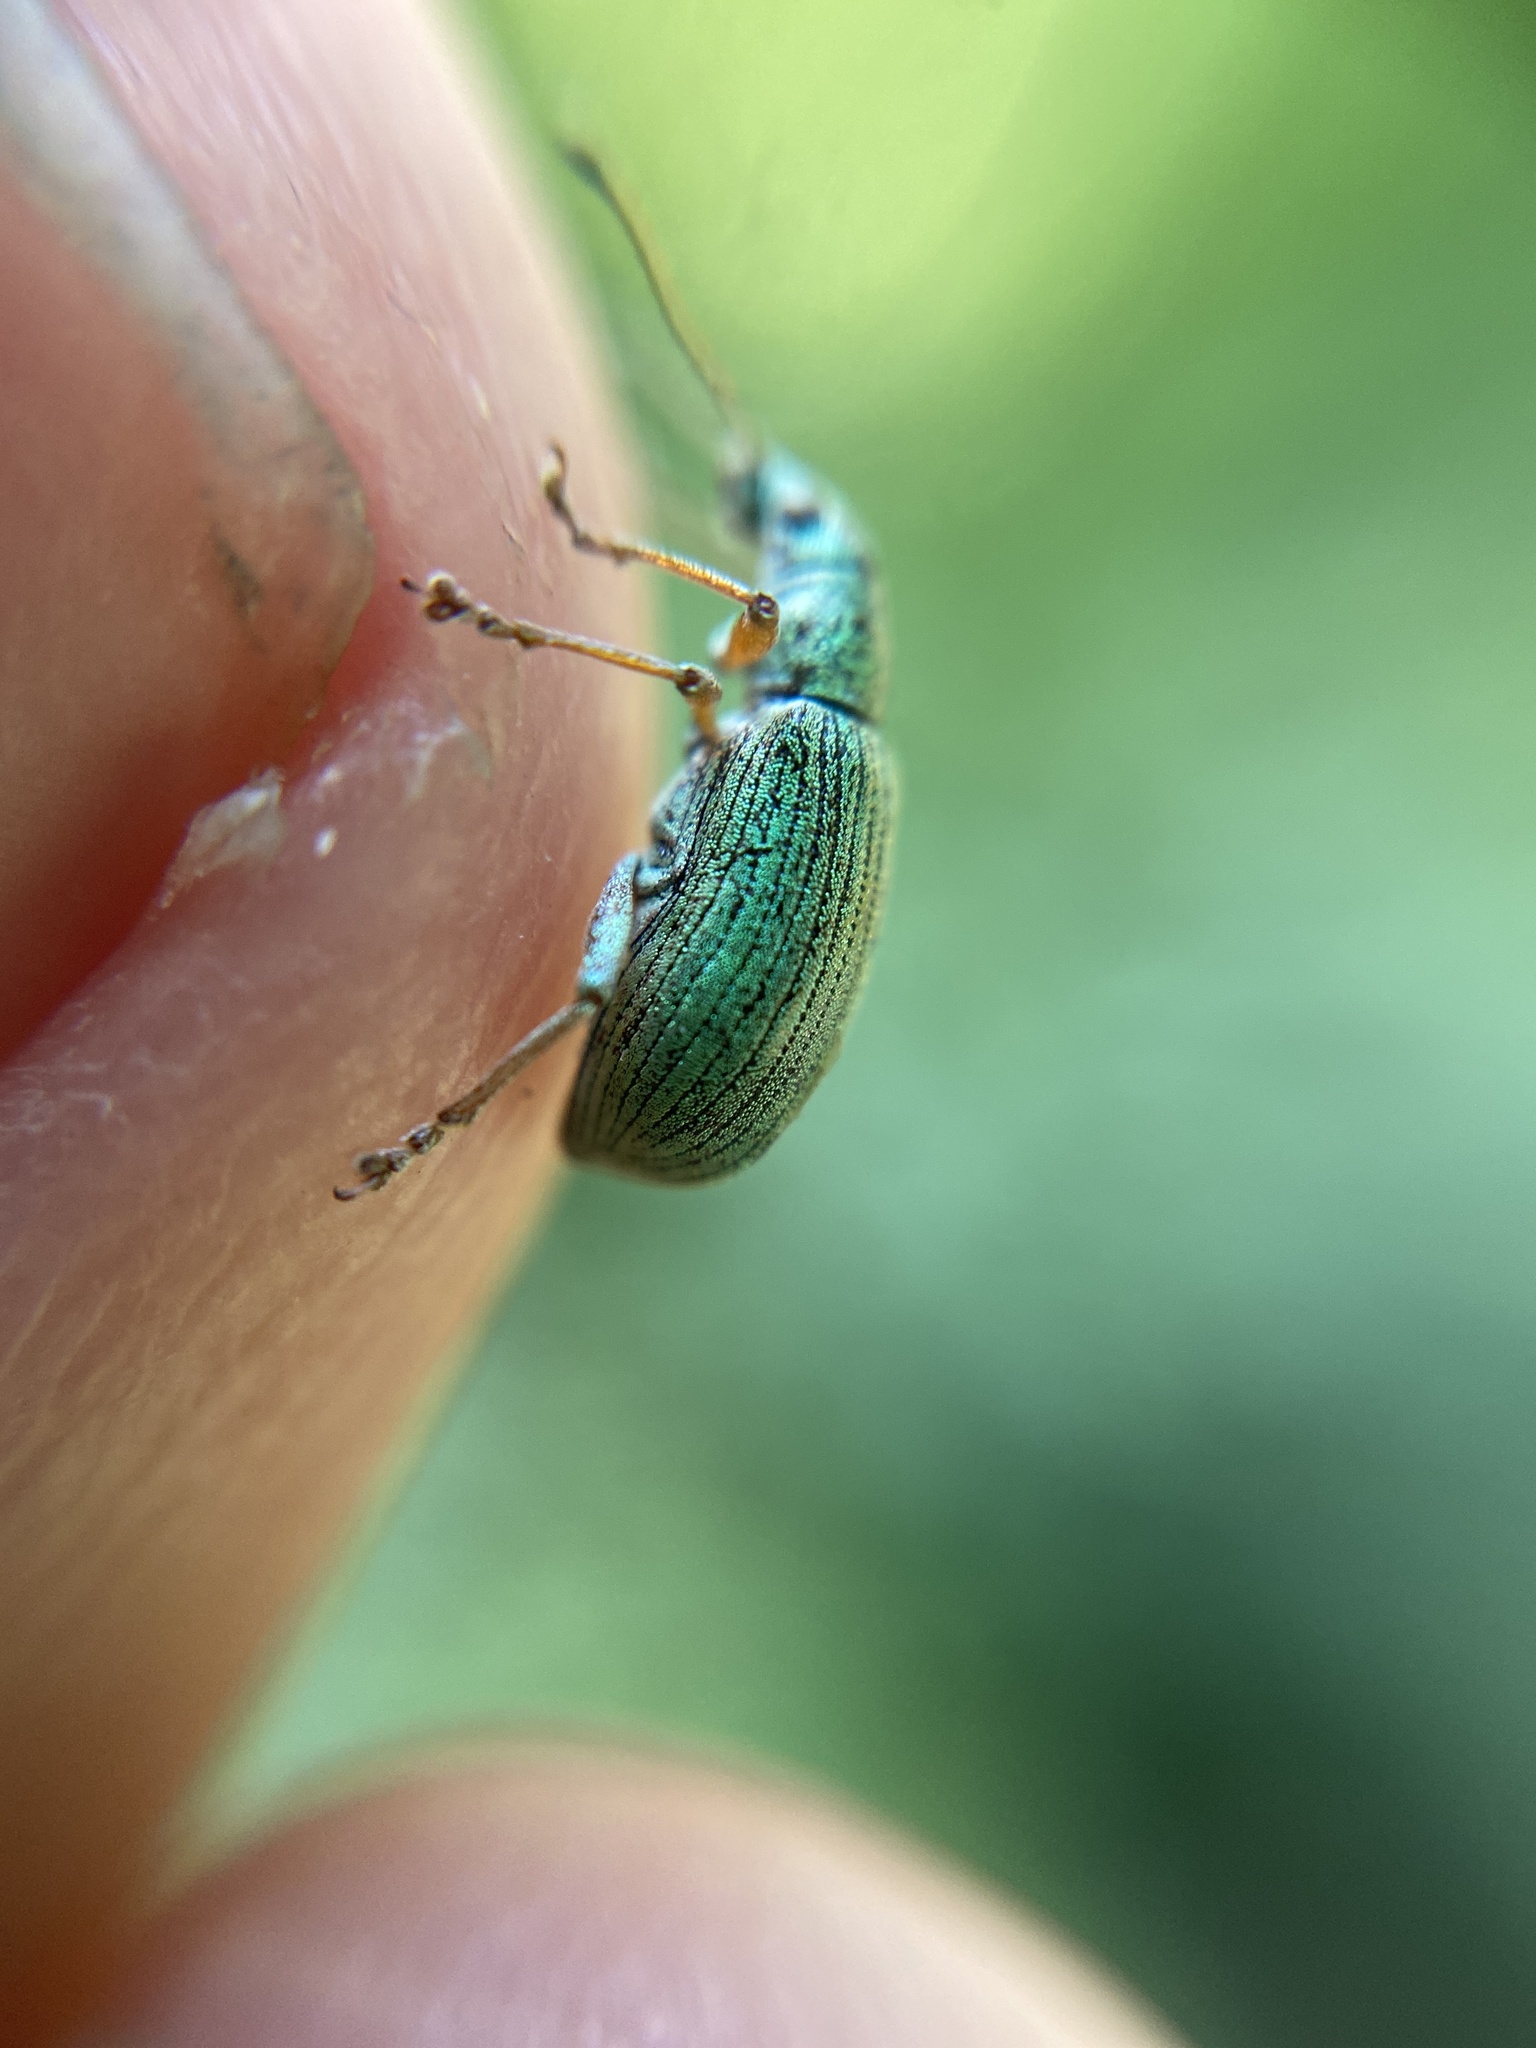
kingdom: Animalia
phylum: Arthropoda
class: Insecta
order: Coleoptera
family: Curculionidae
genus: Polydrusus
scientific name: Polydrusus formosus
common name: Weevil
